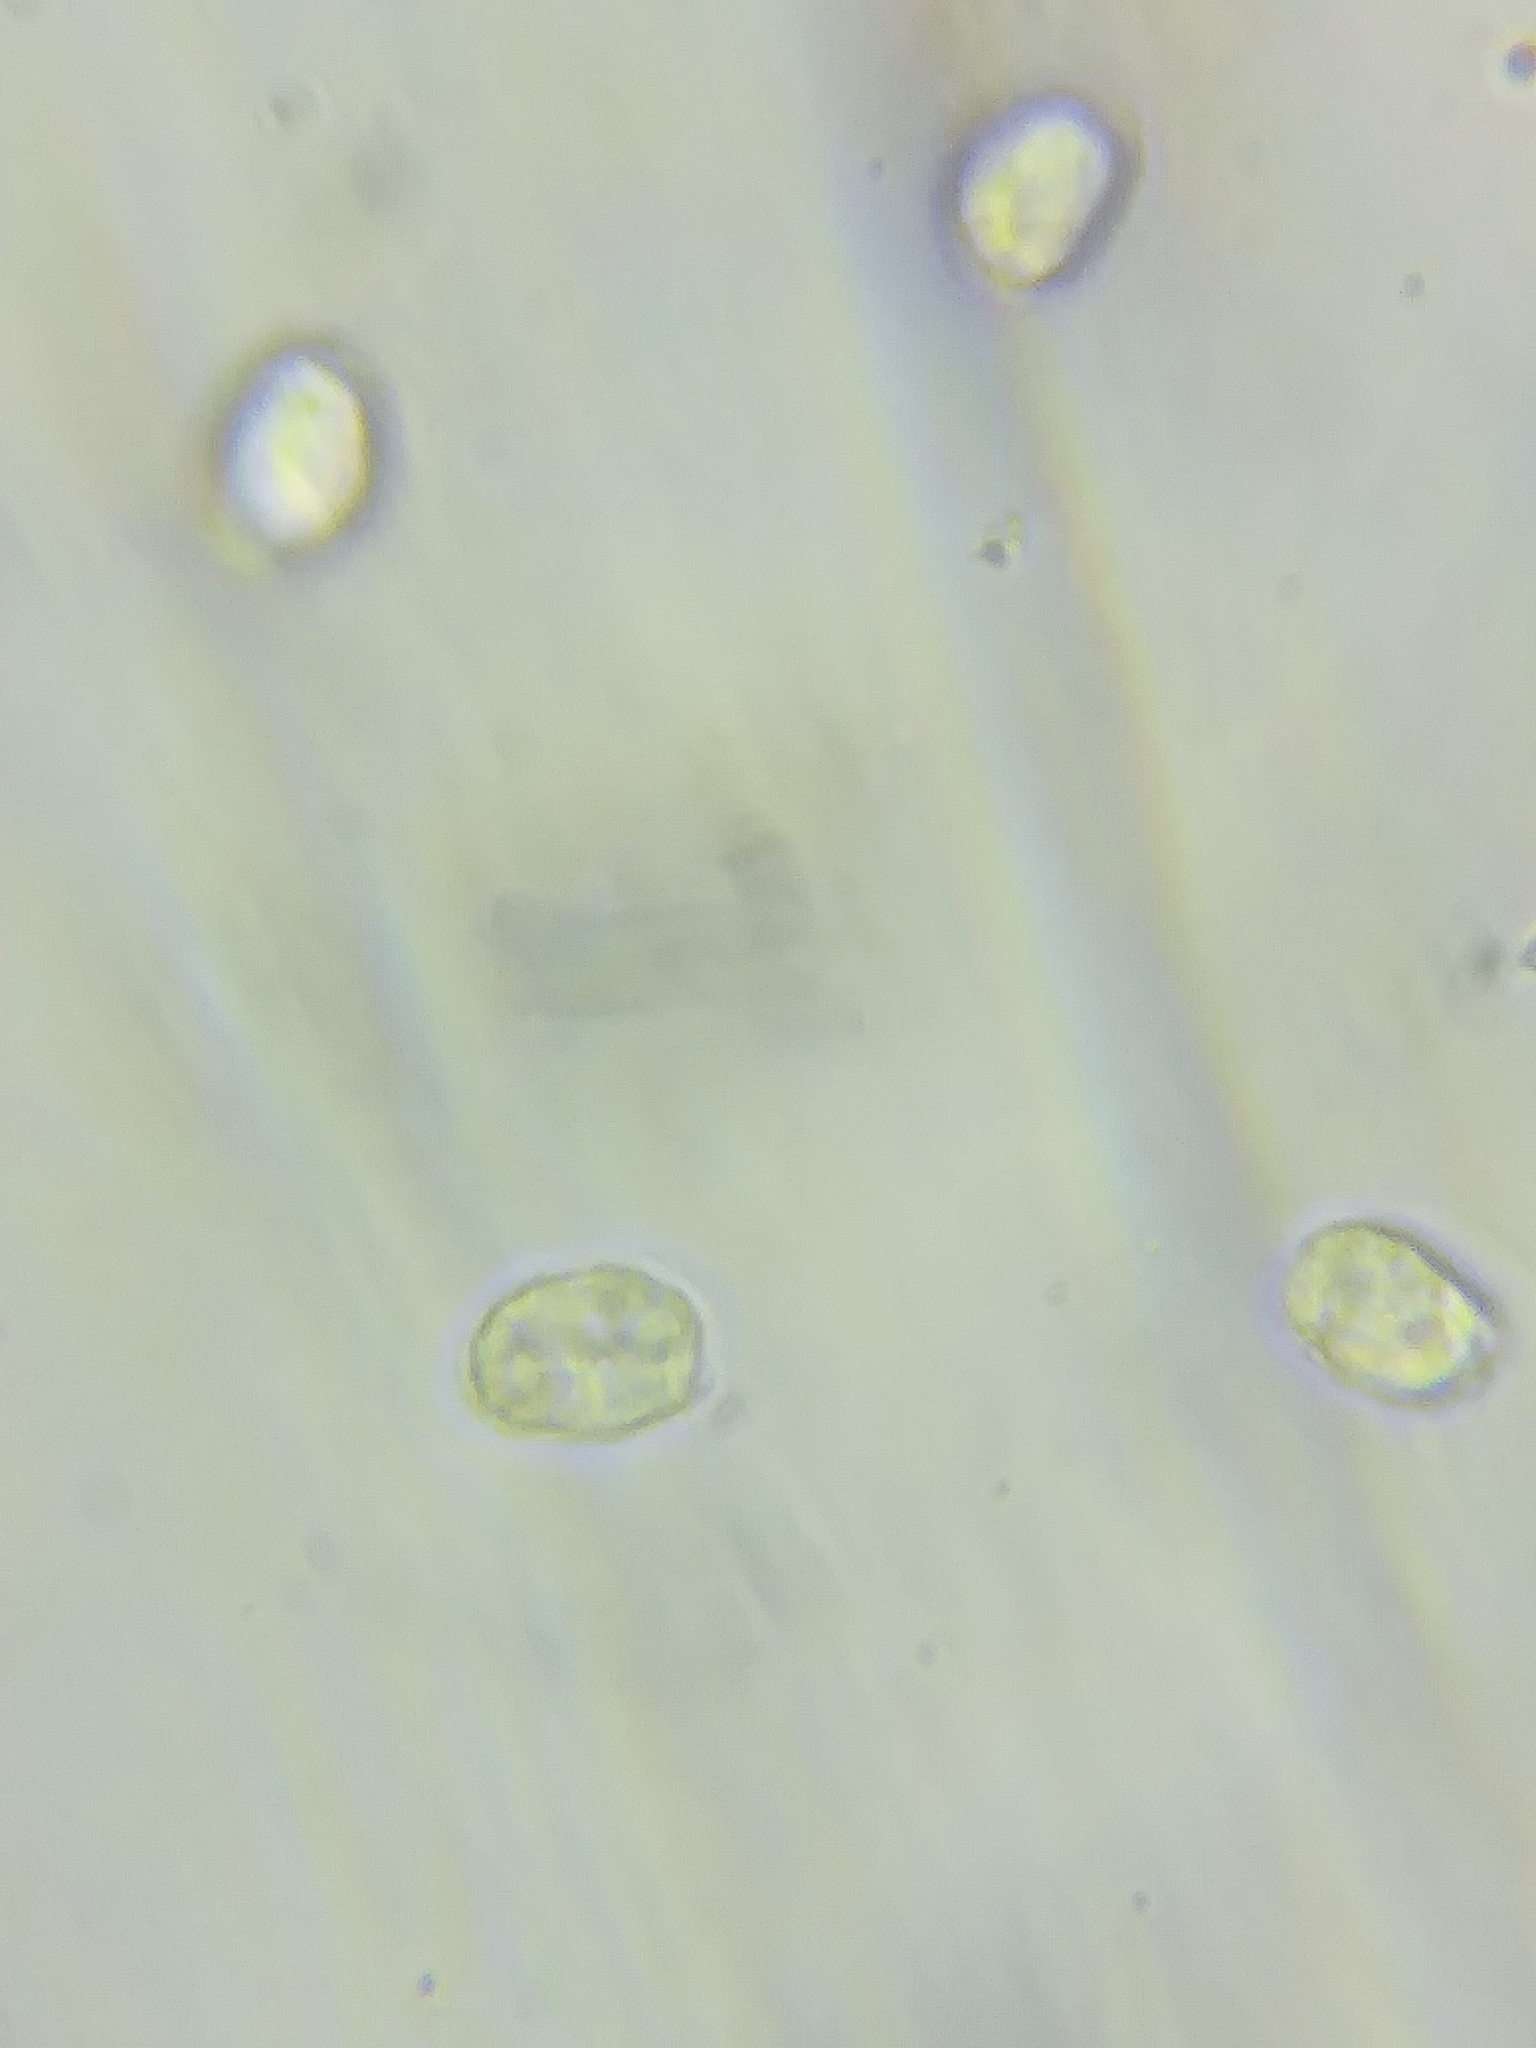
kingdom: Fungi
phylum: Basidiomycota
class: Agaricomycetes
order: Agaricales
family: Amanitaceae
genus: Amanita
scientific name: Amanita bisporigera
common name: Eastern north american destroying angel
